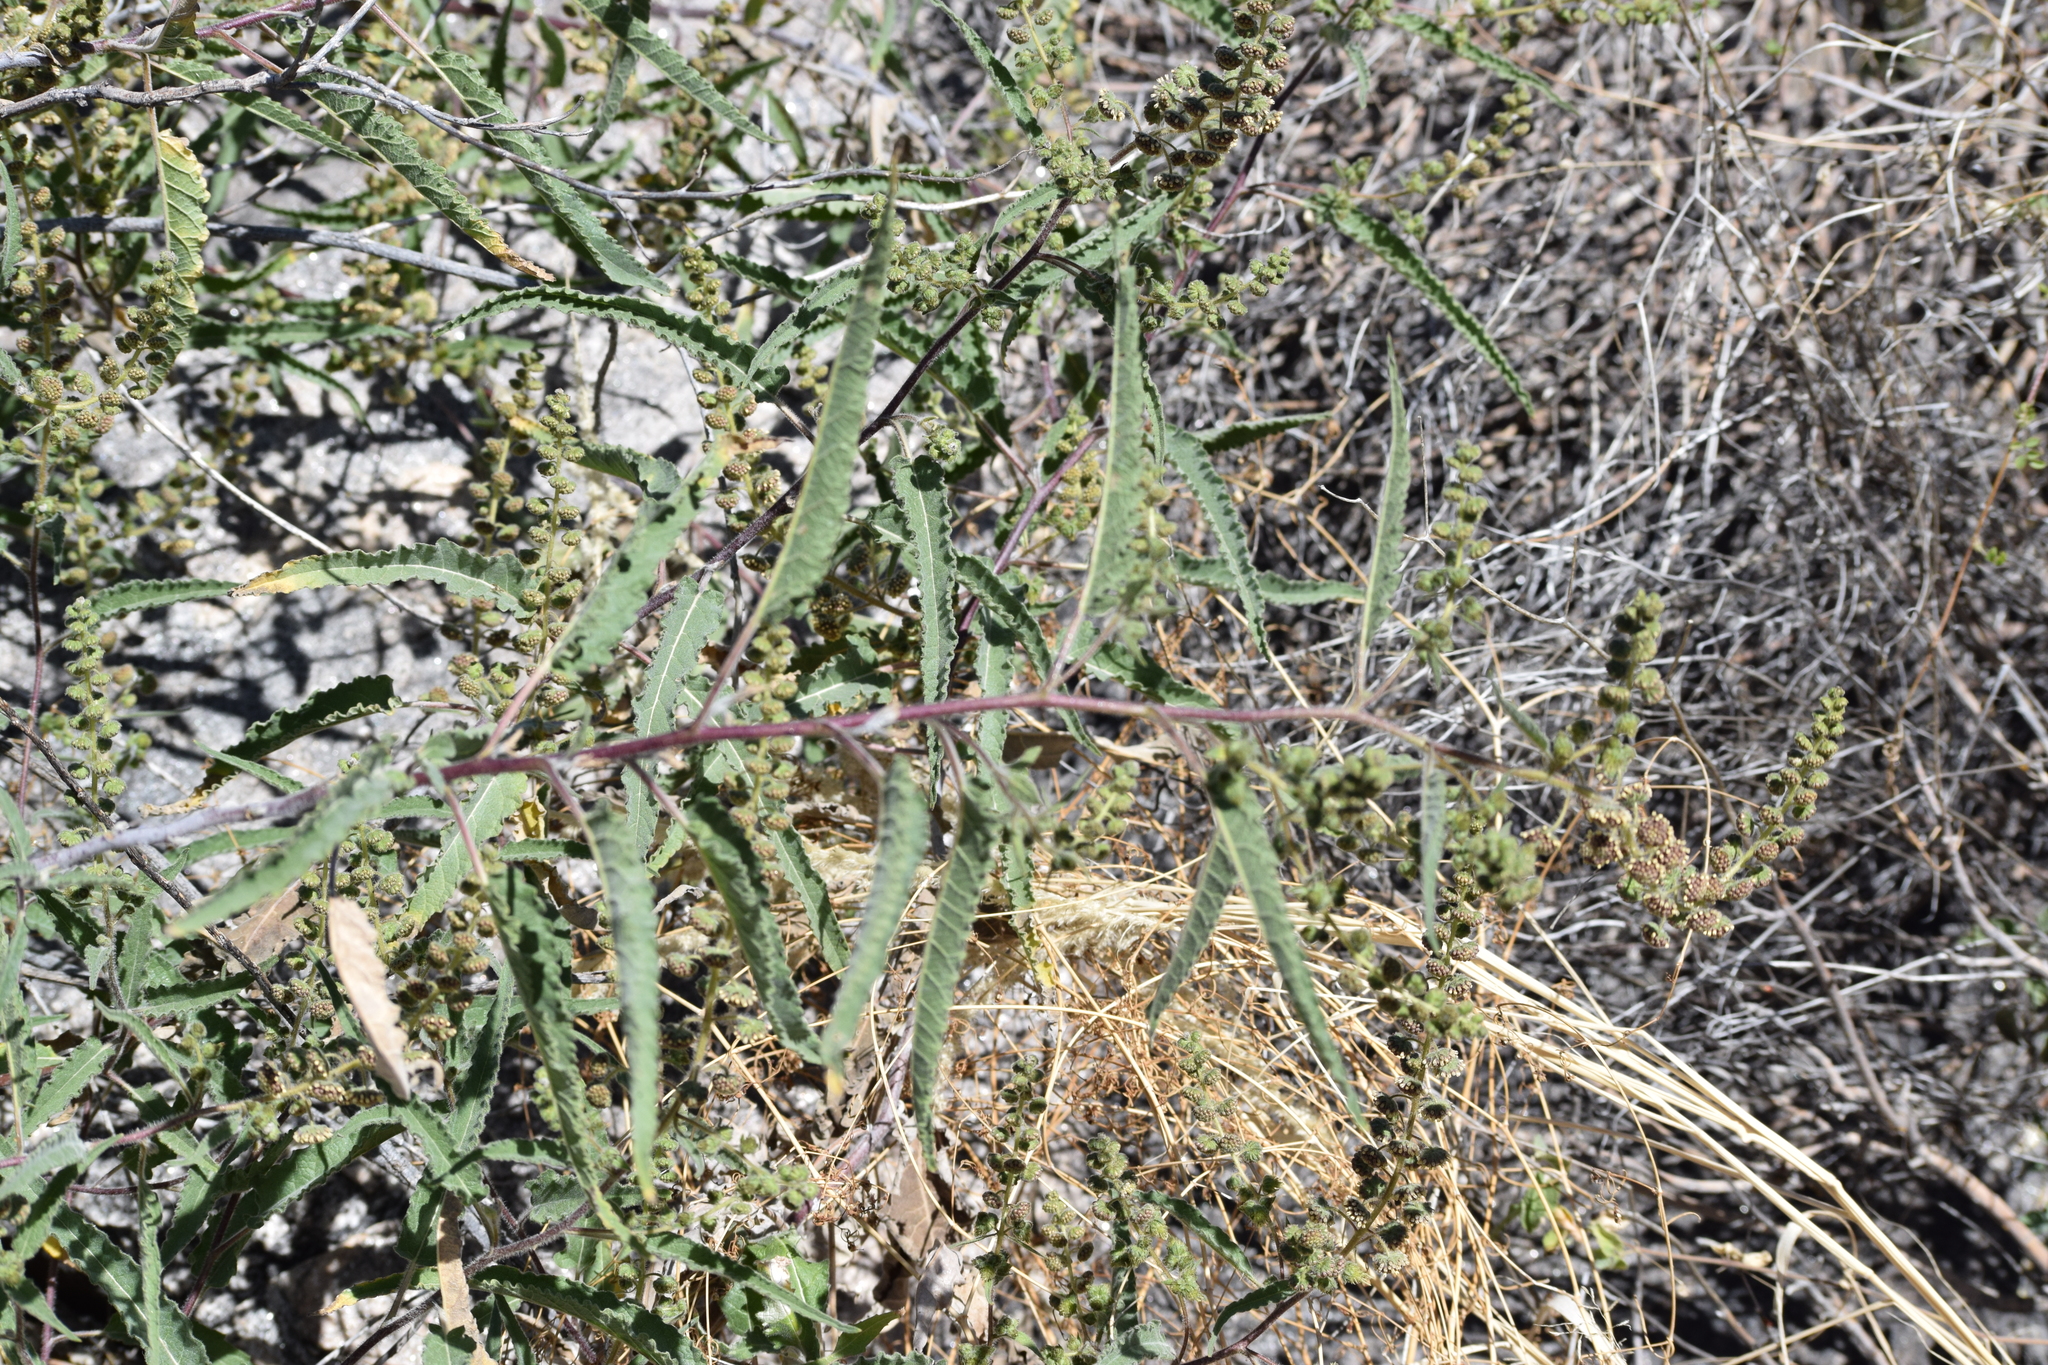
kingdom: Plantae
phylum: Tracheophyta
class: Magnoliopsida
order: Asterales
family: Asteraceae
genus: Ambrosia
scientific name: Ambrosia ambrosioides
